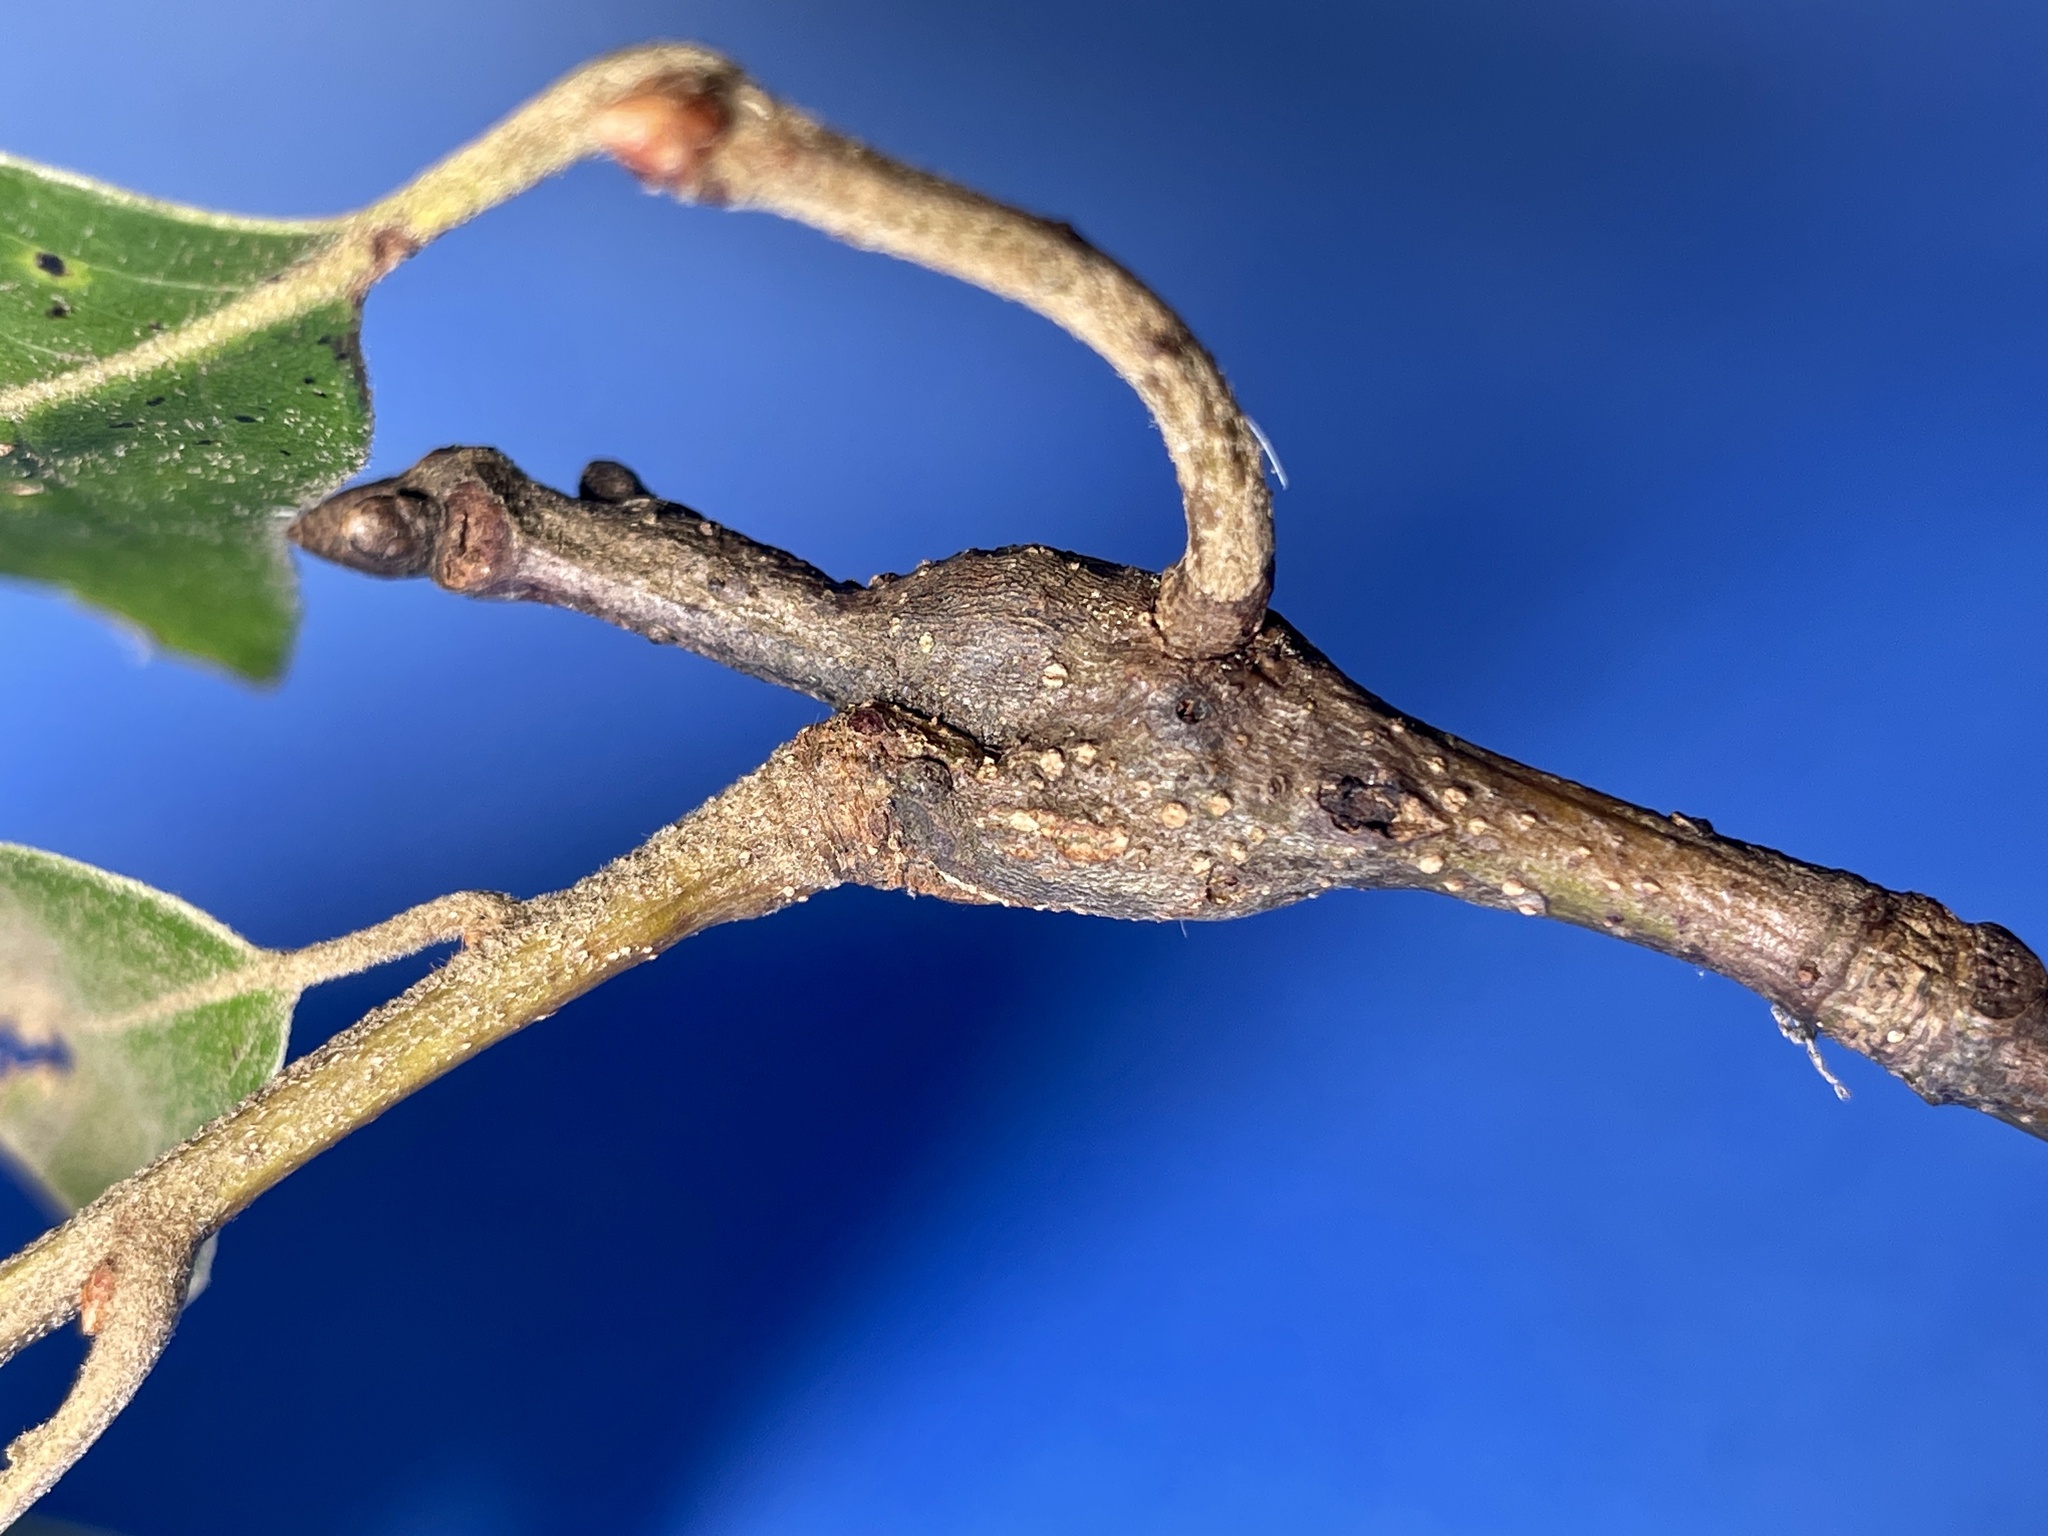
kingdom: Animalia
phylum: Arthropoda
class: Insecta
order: Hymenoptera
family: Cynipidae
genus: Zapatella
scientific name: Zapatella quercusphellos
